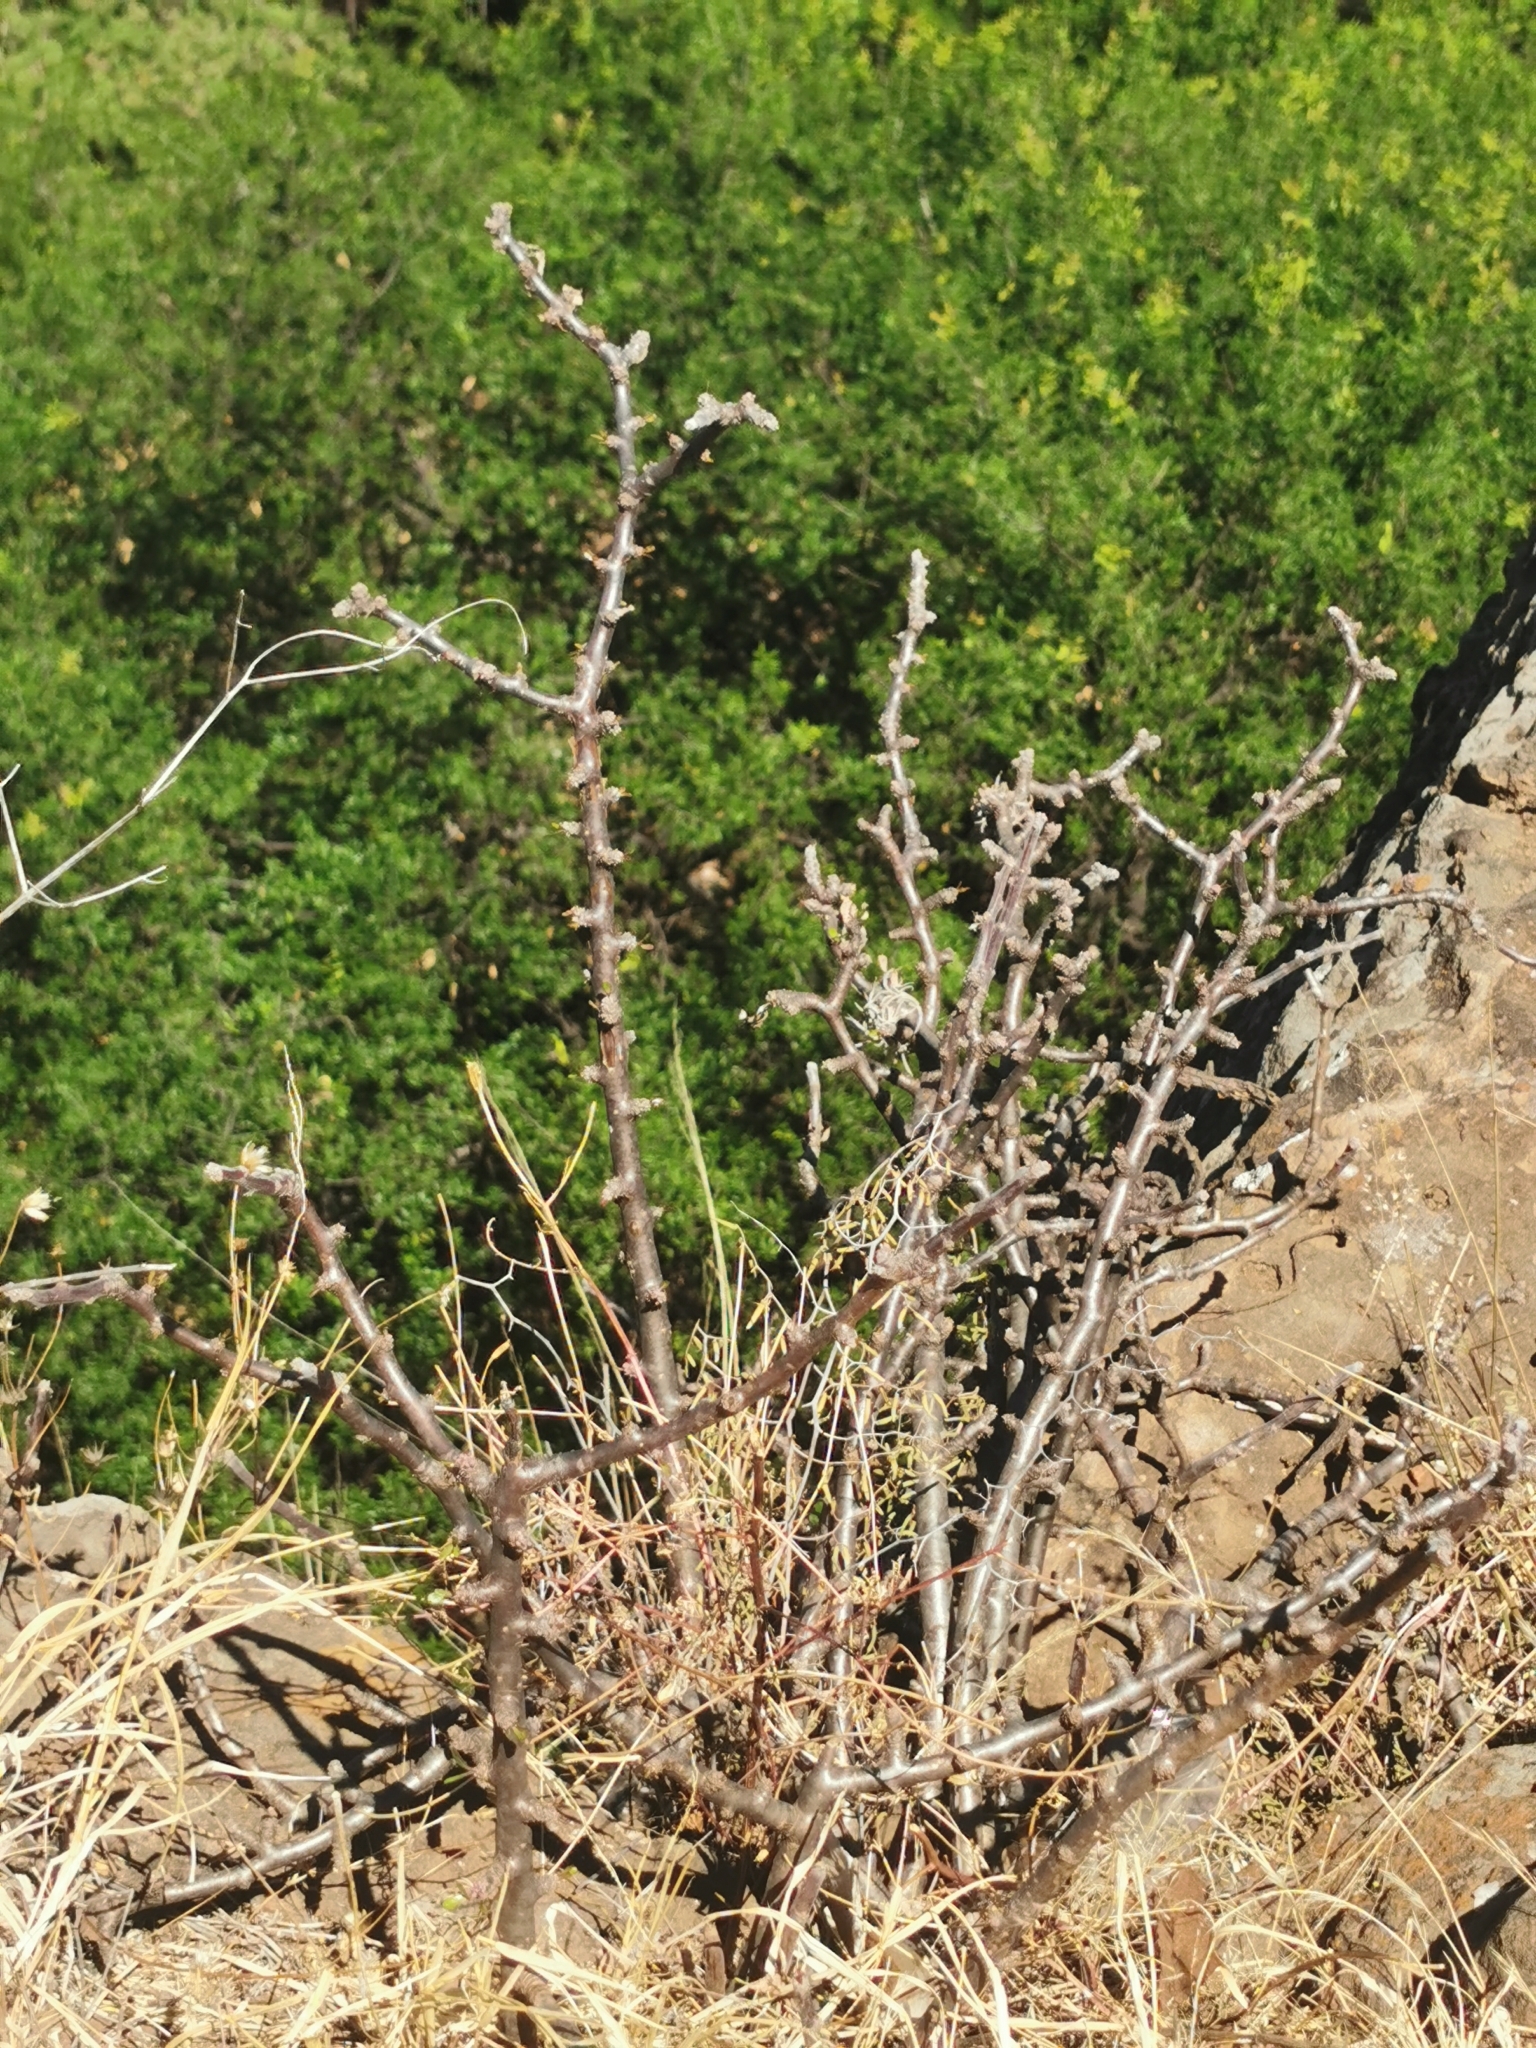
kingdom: Plantae
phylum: Tracheophyta
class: Magnoliopsida
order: Malpighiales
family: Euphorbiaceae
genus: Jatropha
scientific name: Jatropha dioica
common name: Leatherstem
